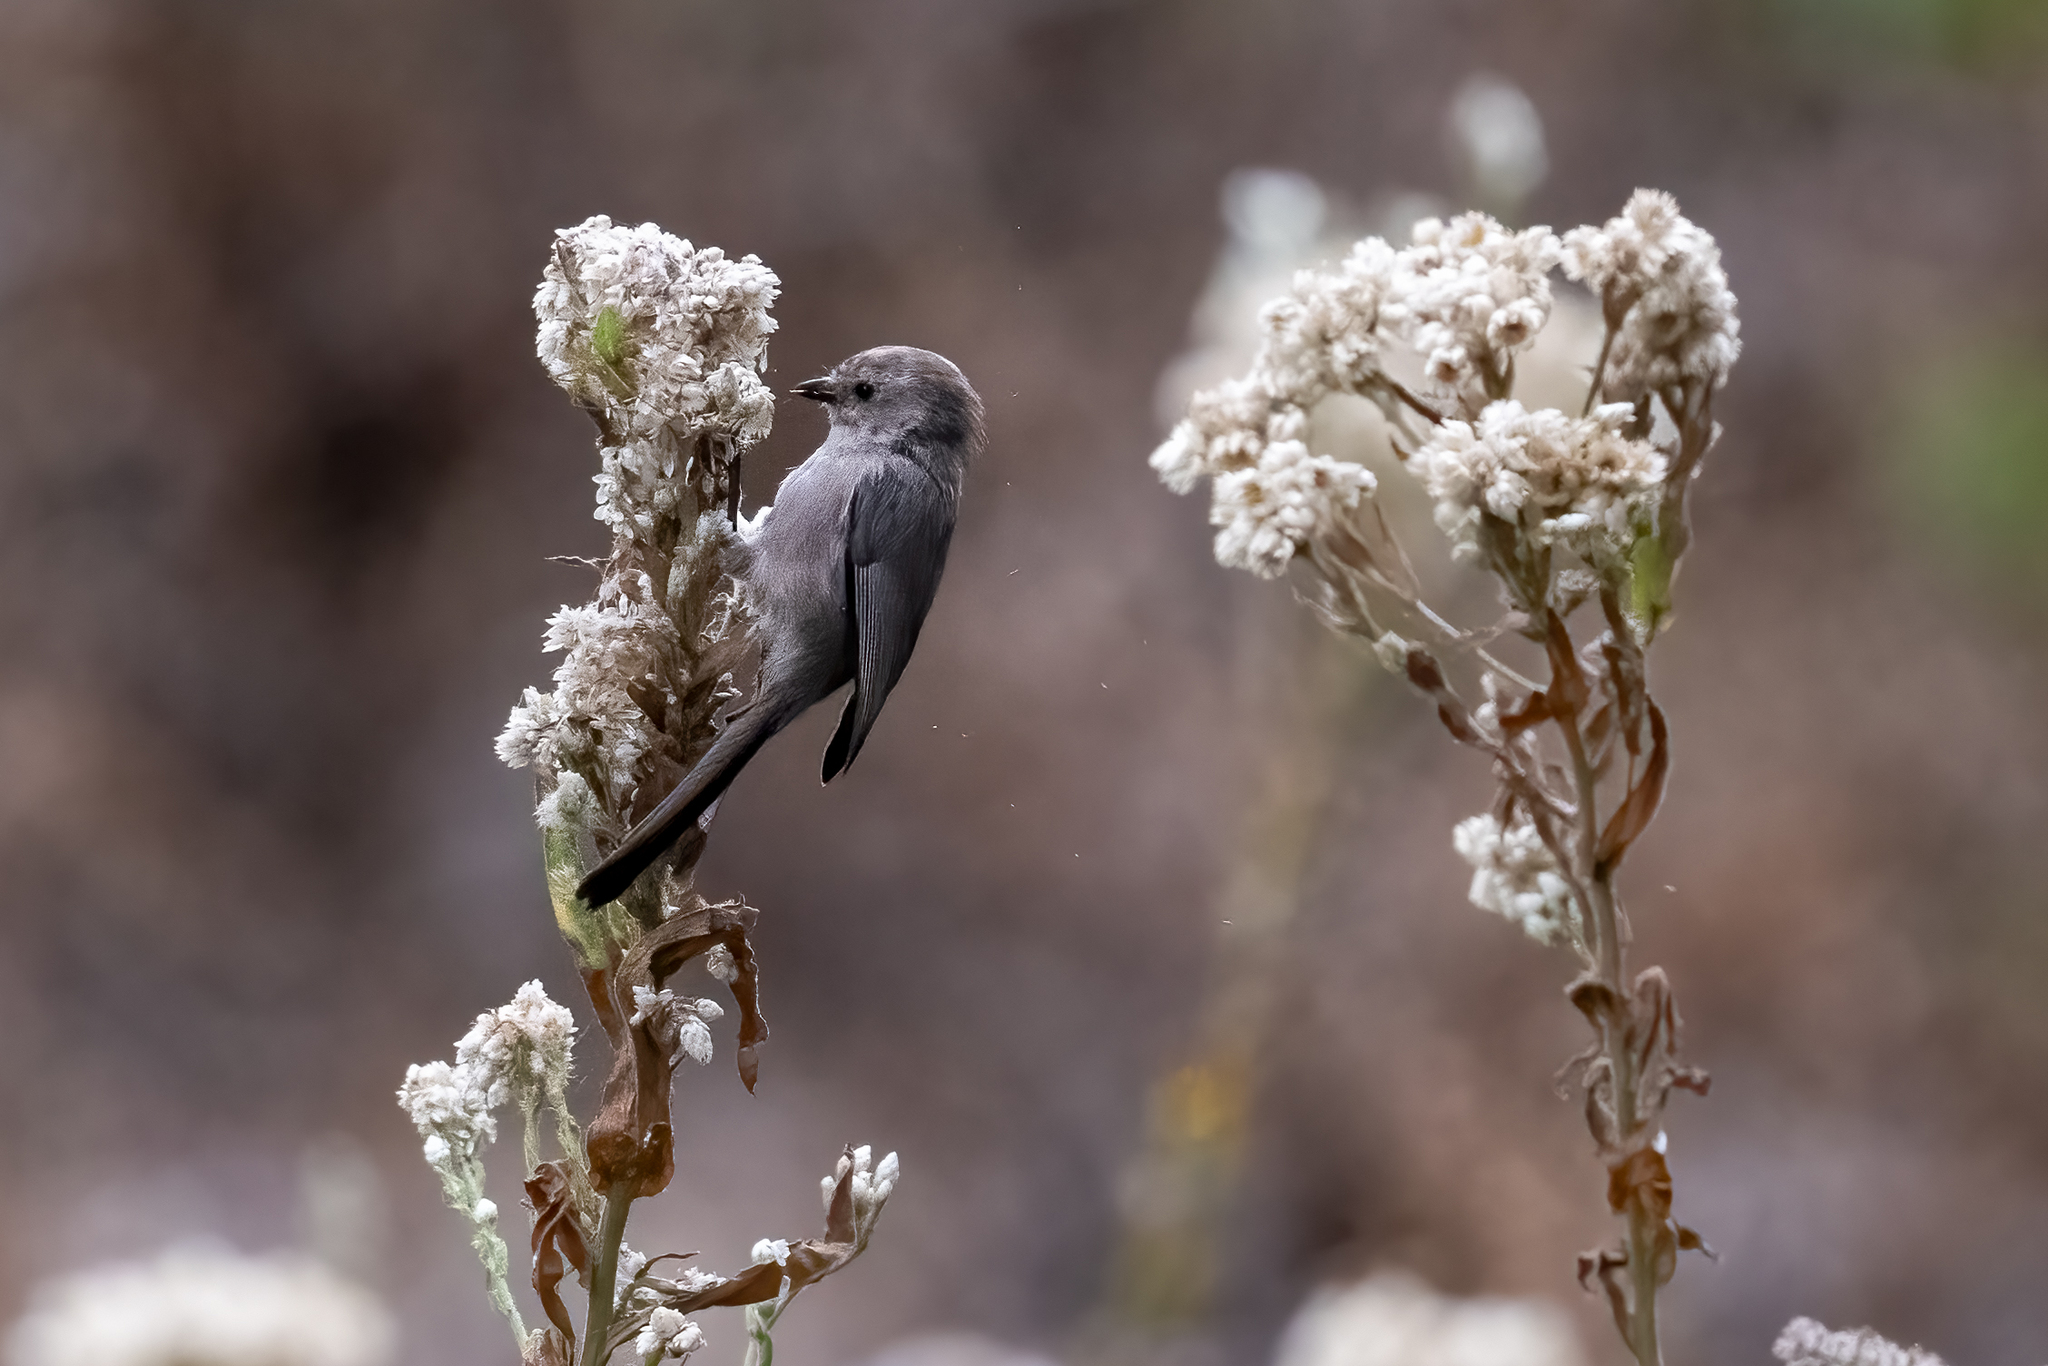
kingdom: Animalia
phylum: Chordata
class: Aves
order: Passeriformes
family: Aegithalidae
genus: Psaltriparus
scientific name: Psaltriparus minimus
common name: American bushtit
